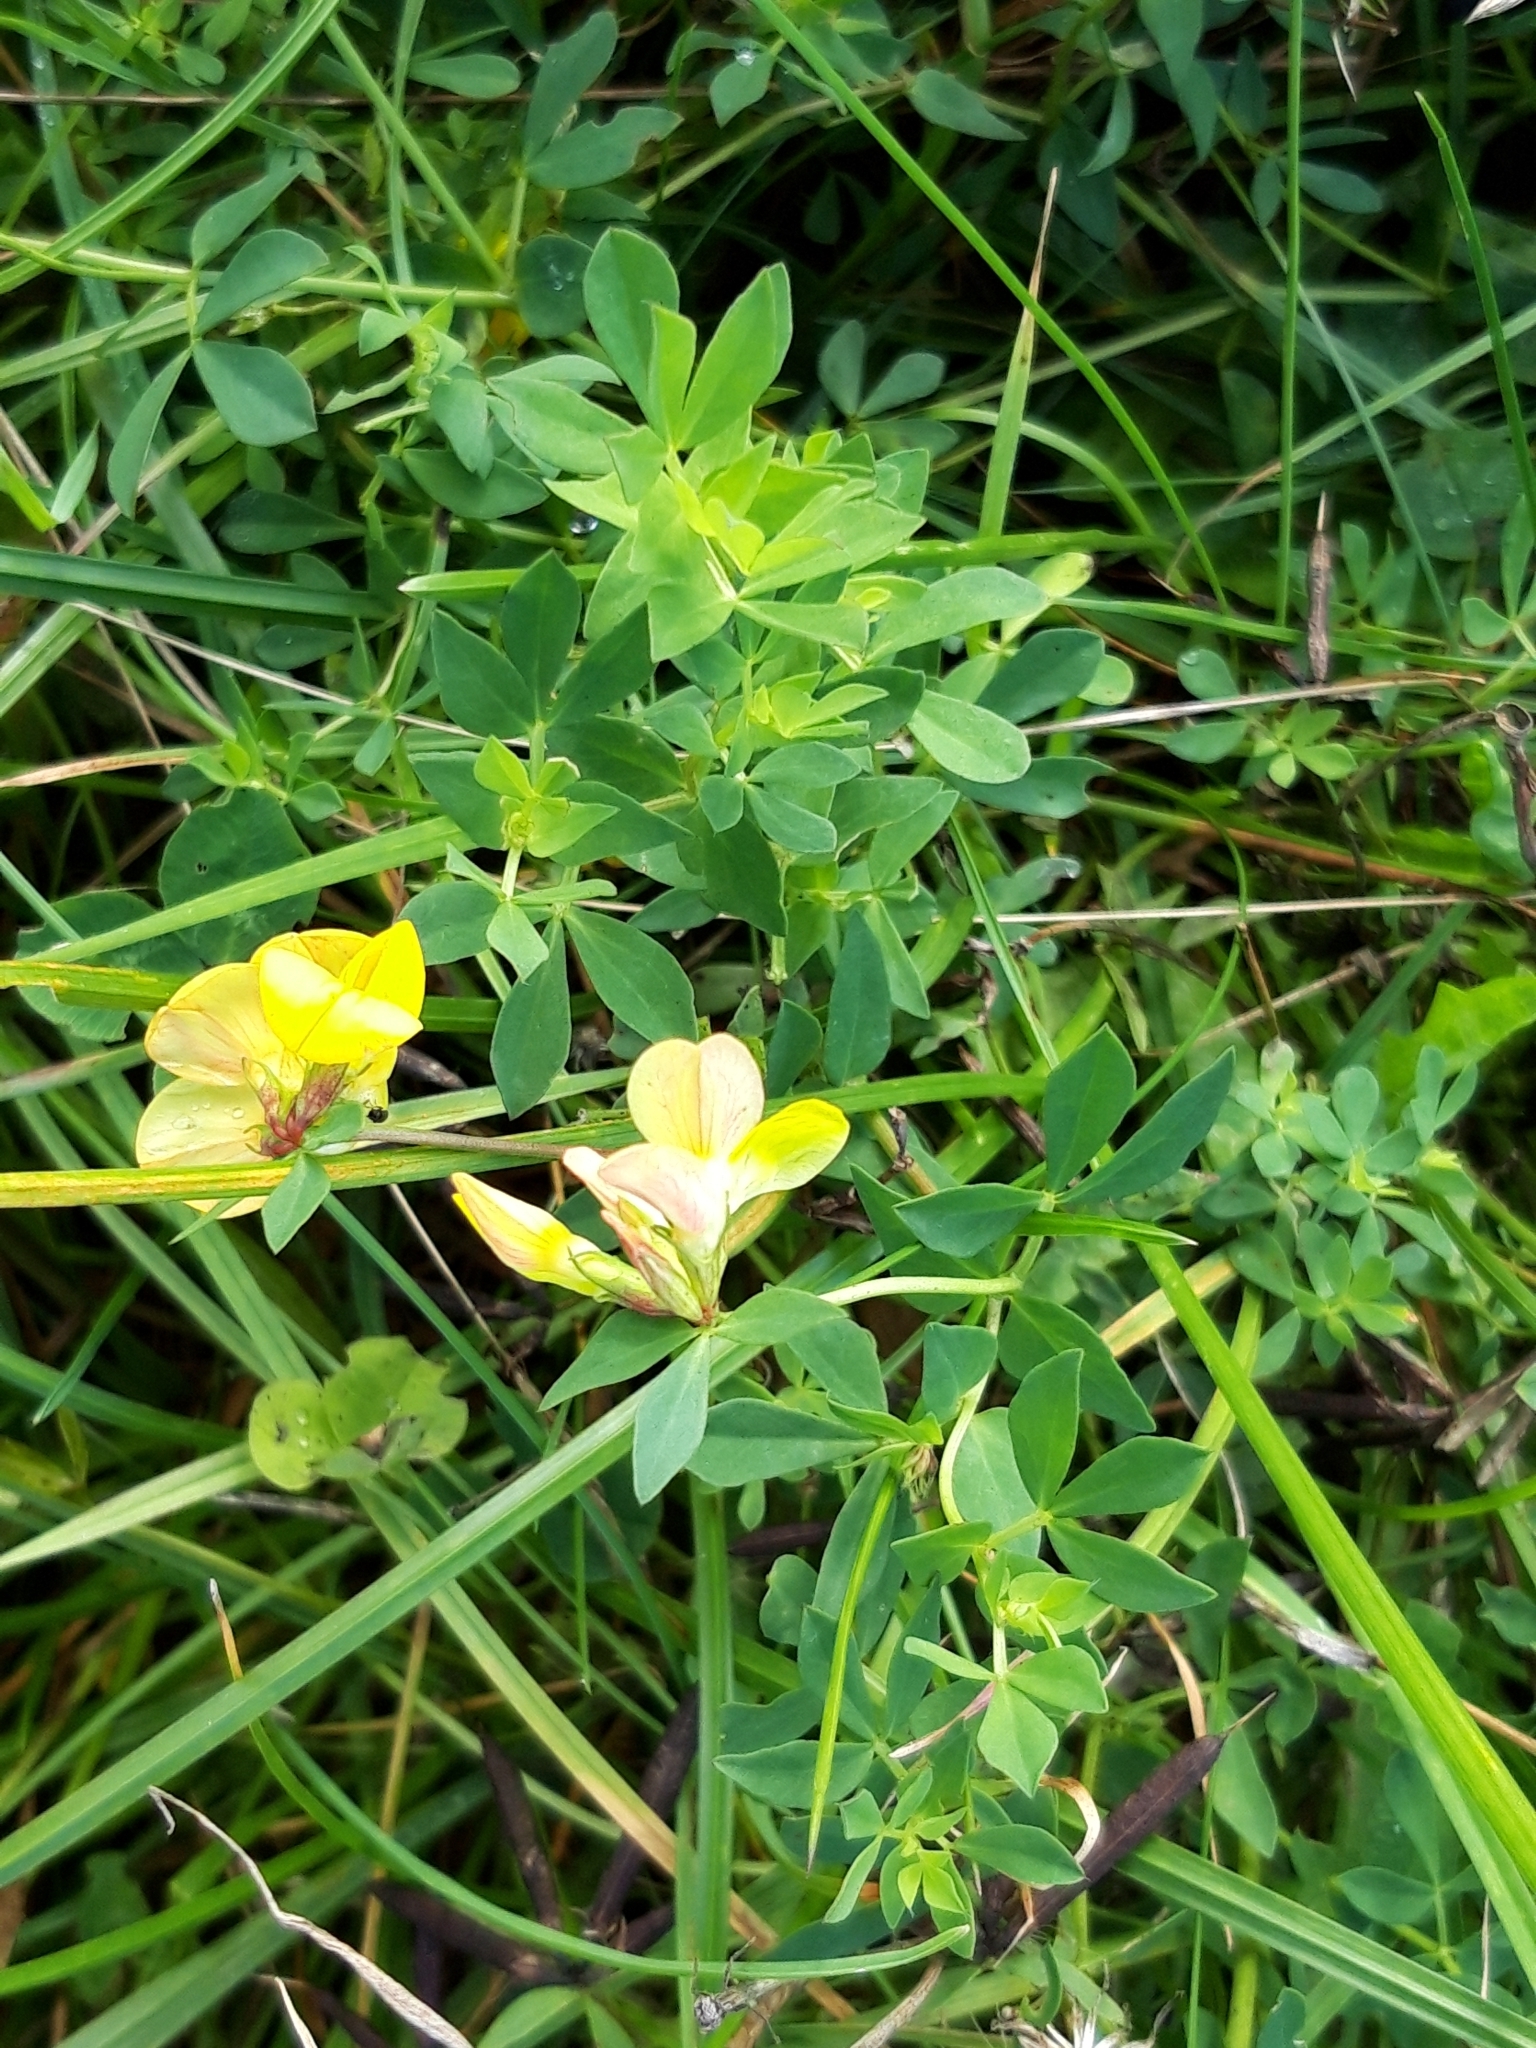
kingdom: Plantae
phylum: Tracheophyta
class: Magnoliopsida
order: Fabales
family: Fabaceae
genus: Lotus
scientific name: Lotus corniculatus
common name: Common bird's-foot-trefoil
